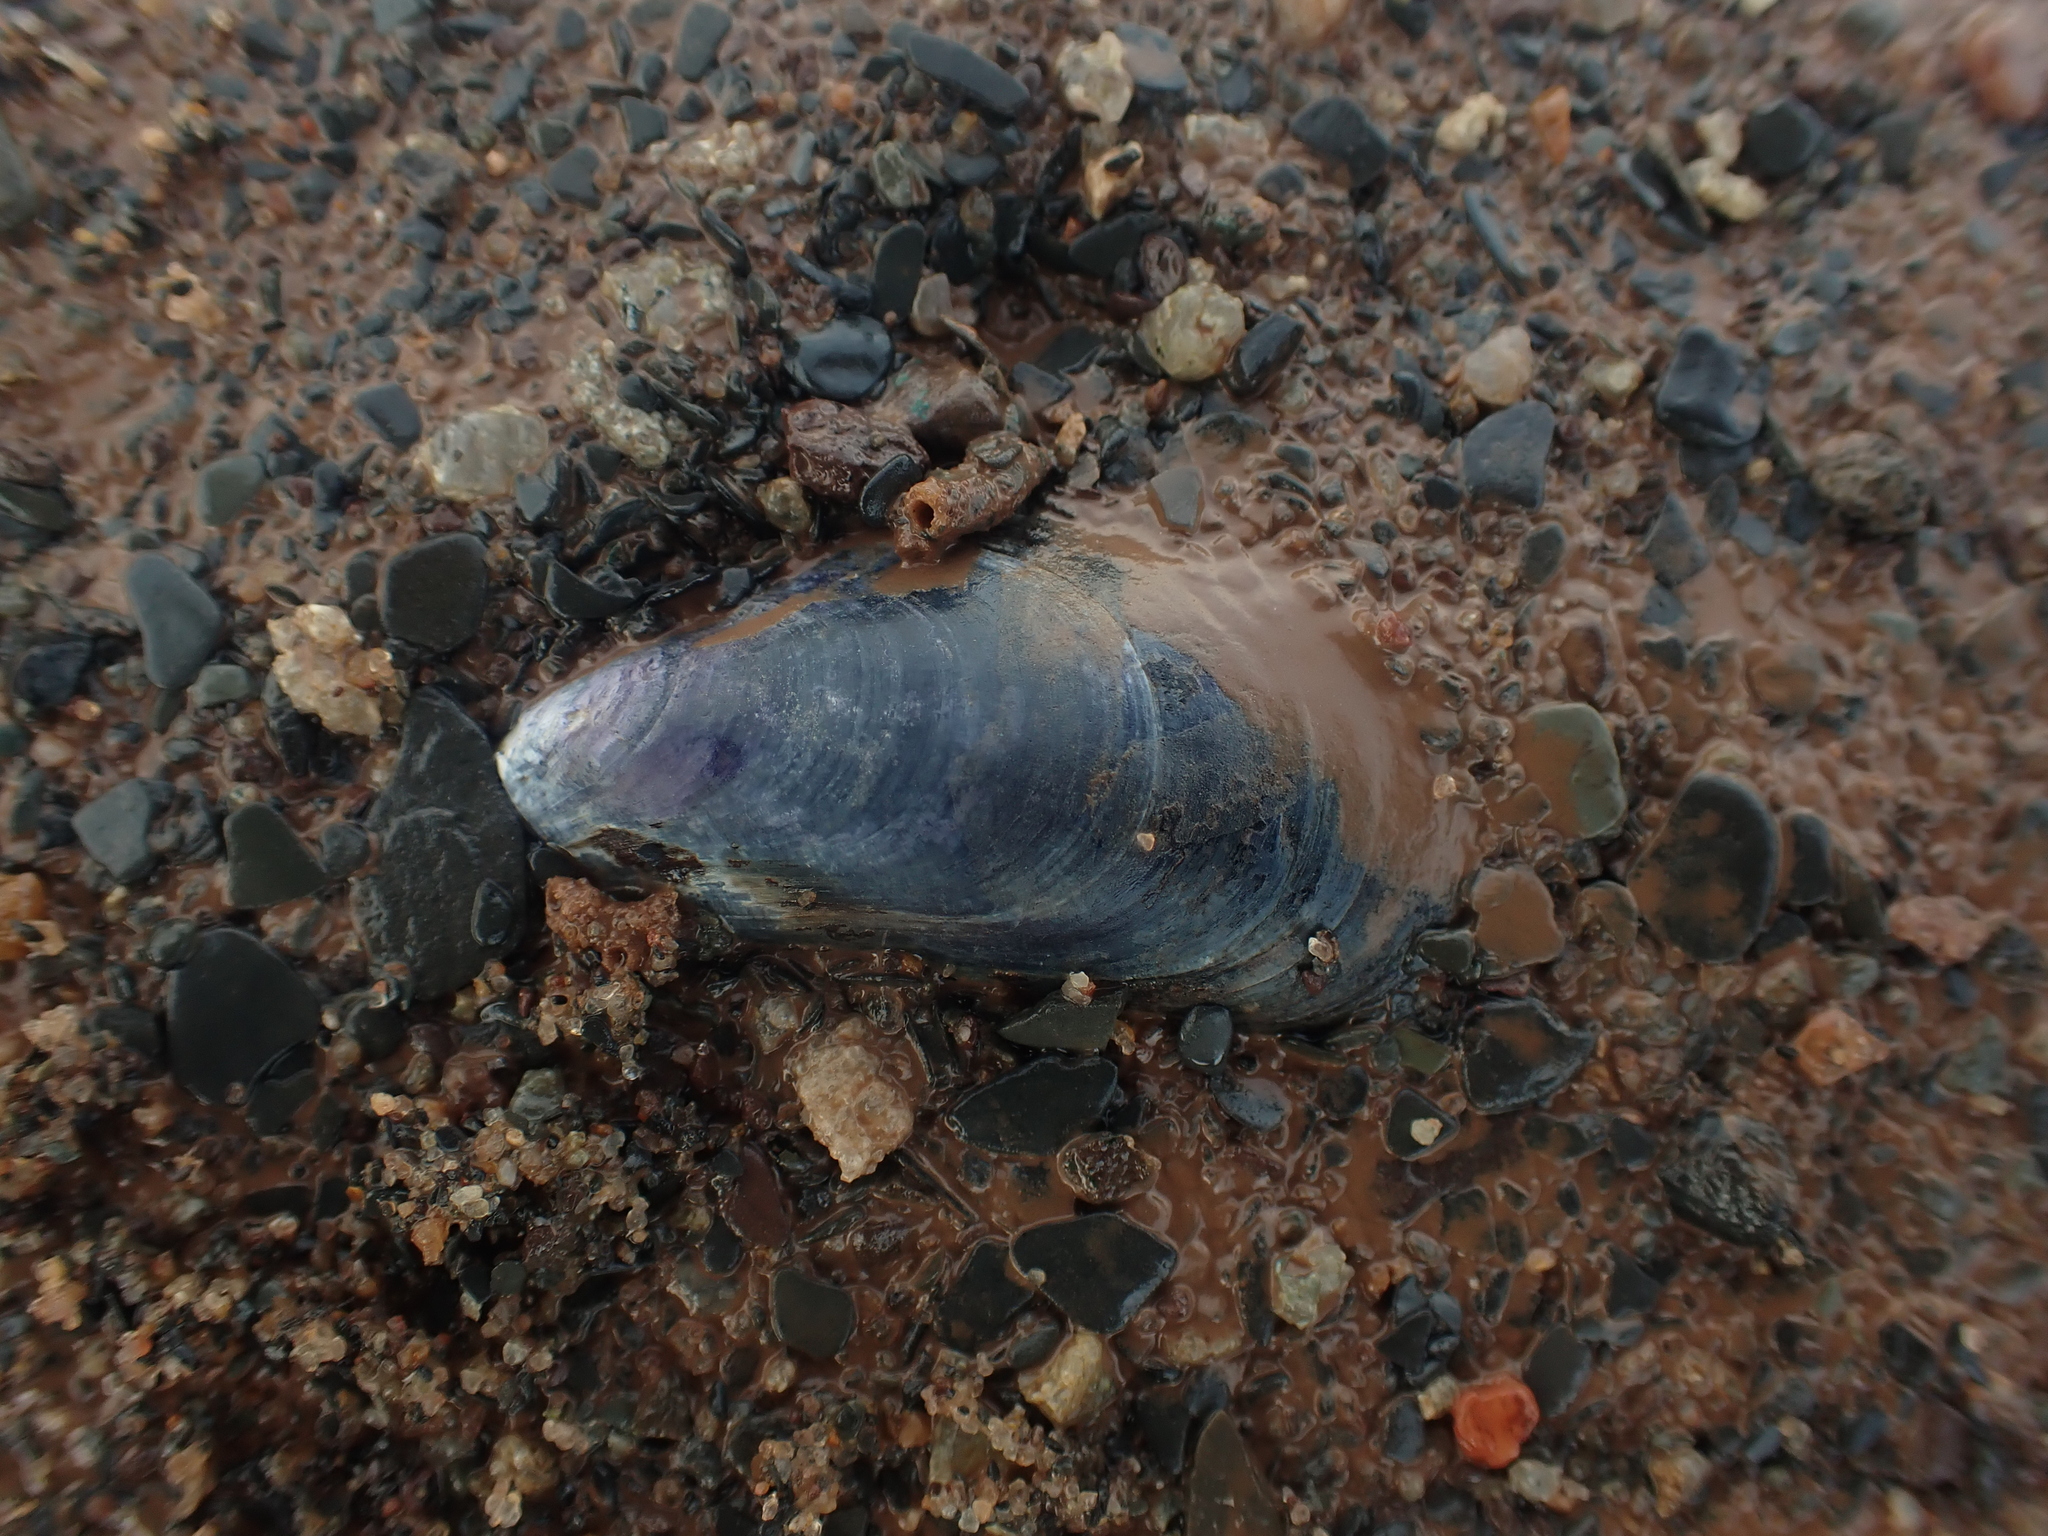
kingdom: Animalia
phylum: Mollusca
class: Bivalvia
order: Mytilida
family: Mytilidae
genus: Mytilus
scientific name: Mytilus
